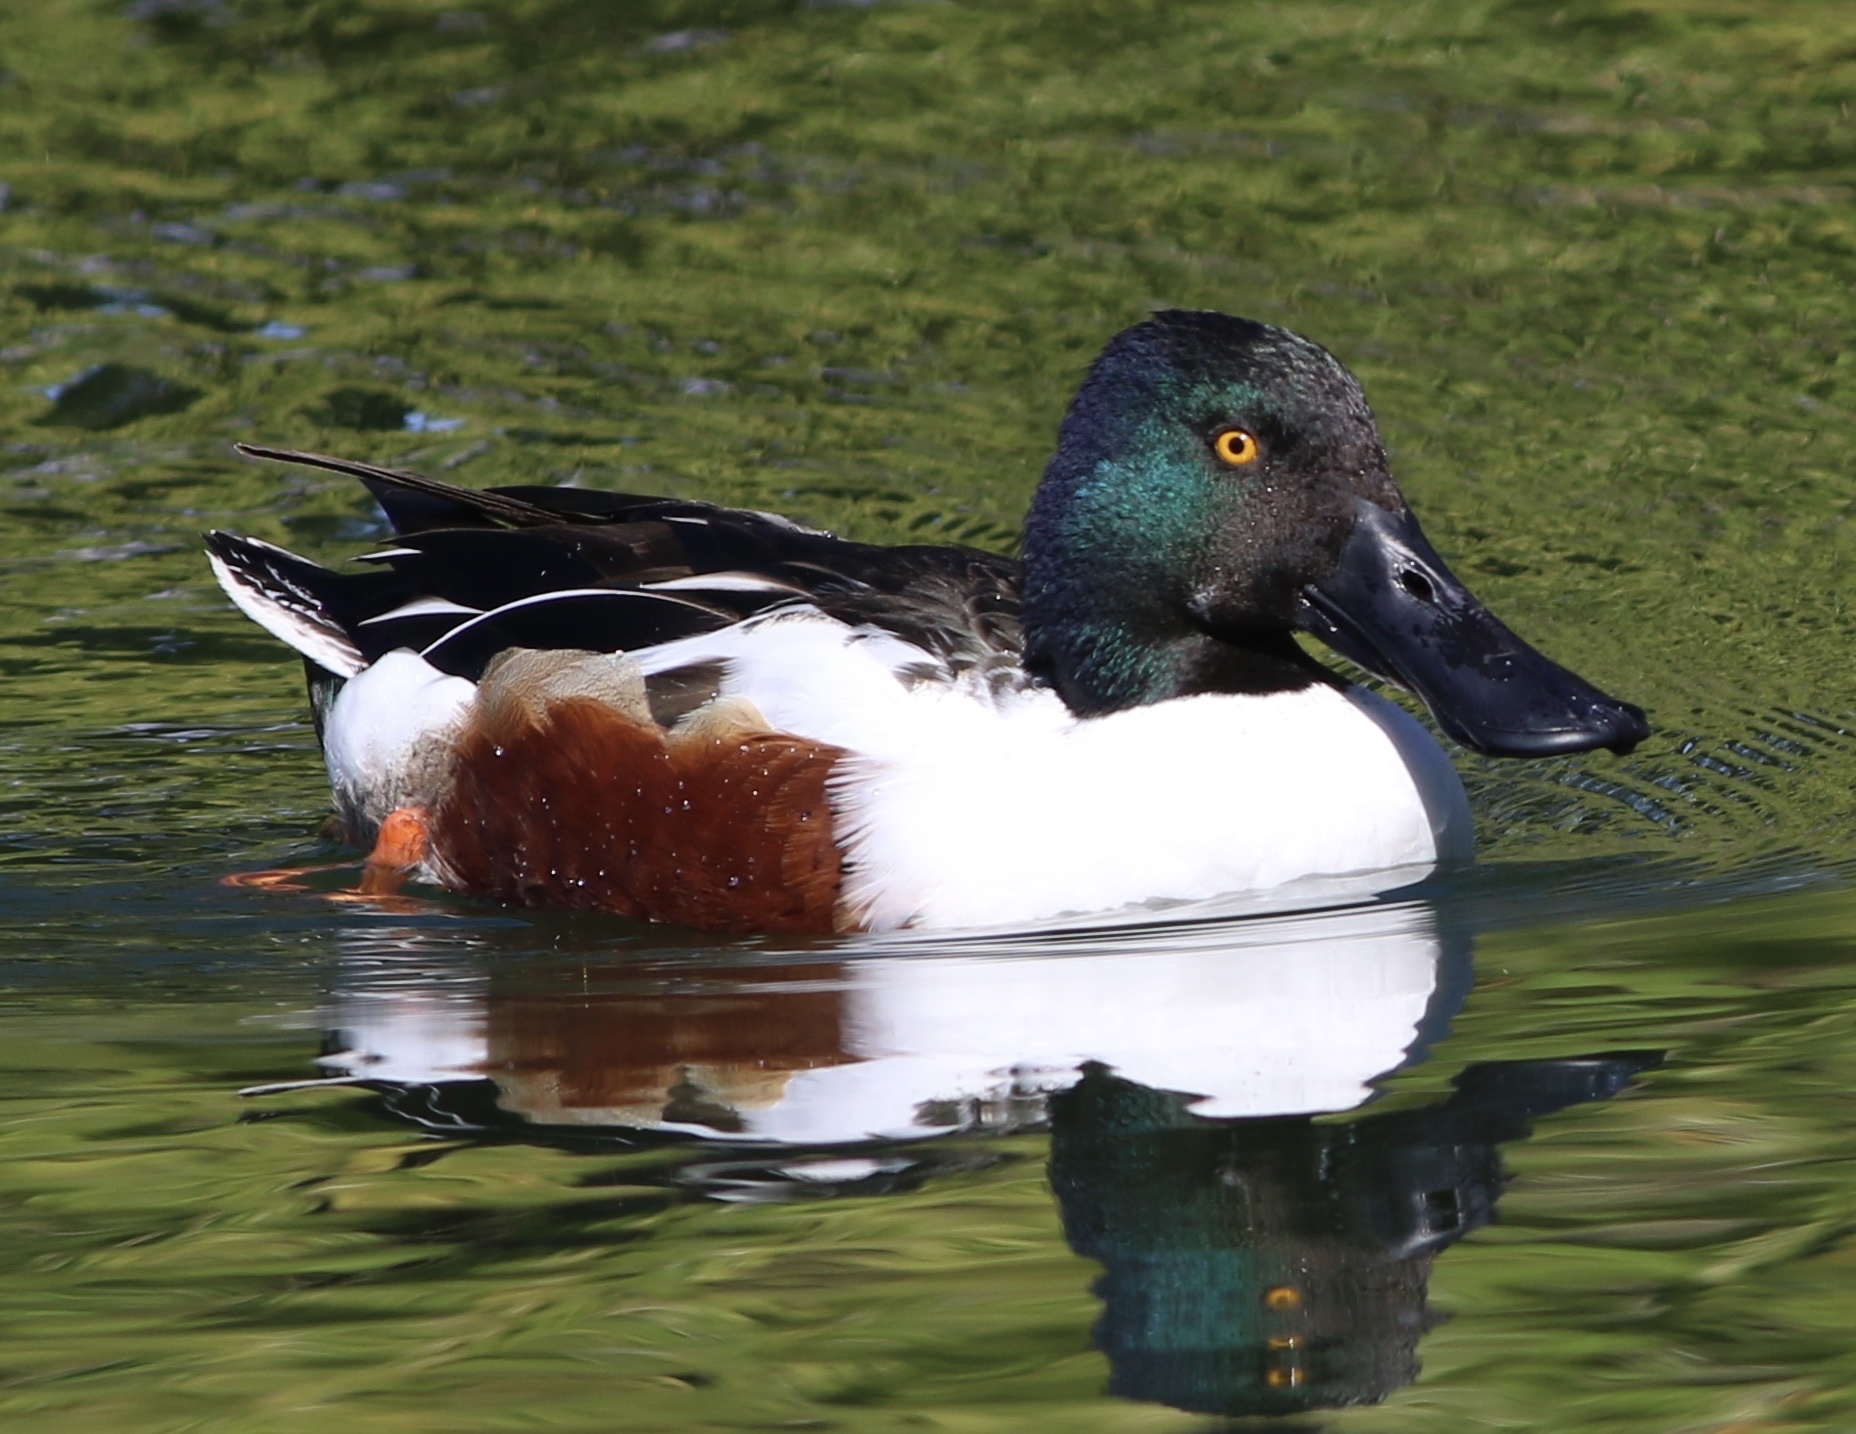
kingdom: Animalia
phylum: Chordata
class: Aves
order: Anseriformes
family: Anatidae
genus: Spatula
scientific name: Spatula clypeata
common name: Northern shoveler
